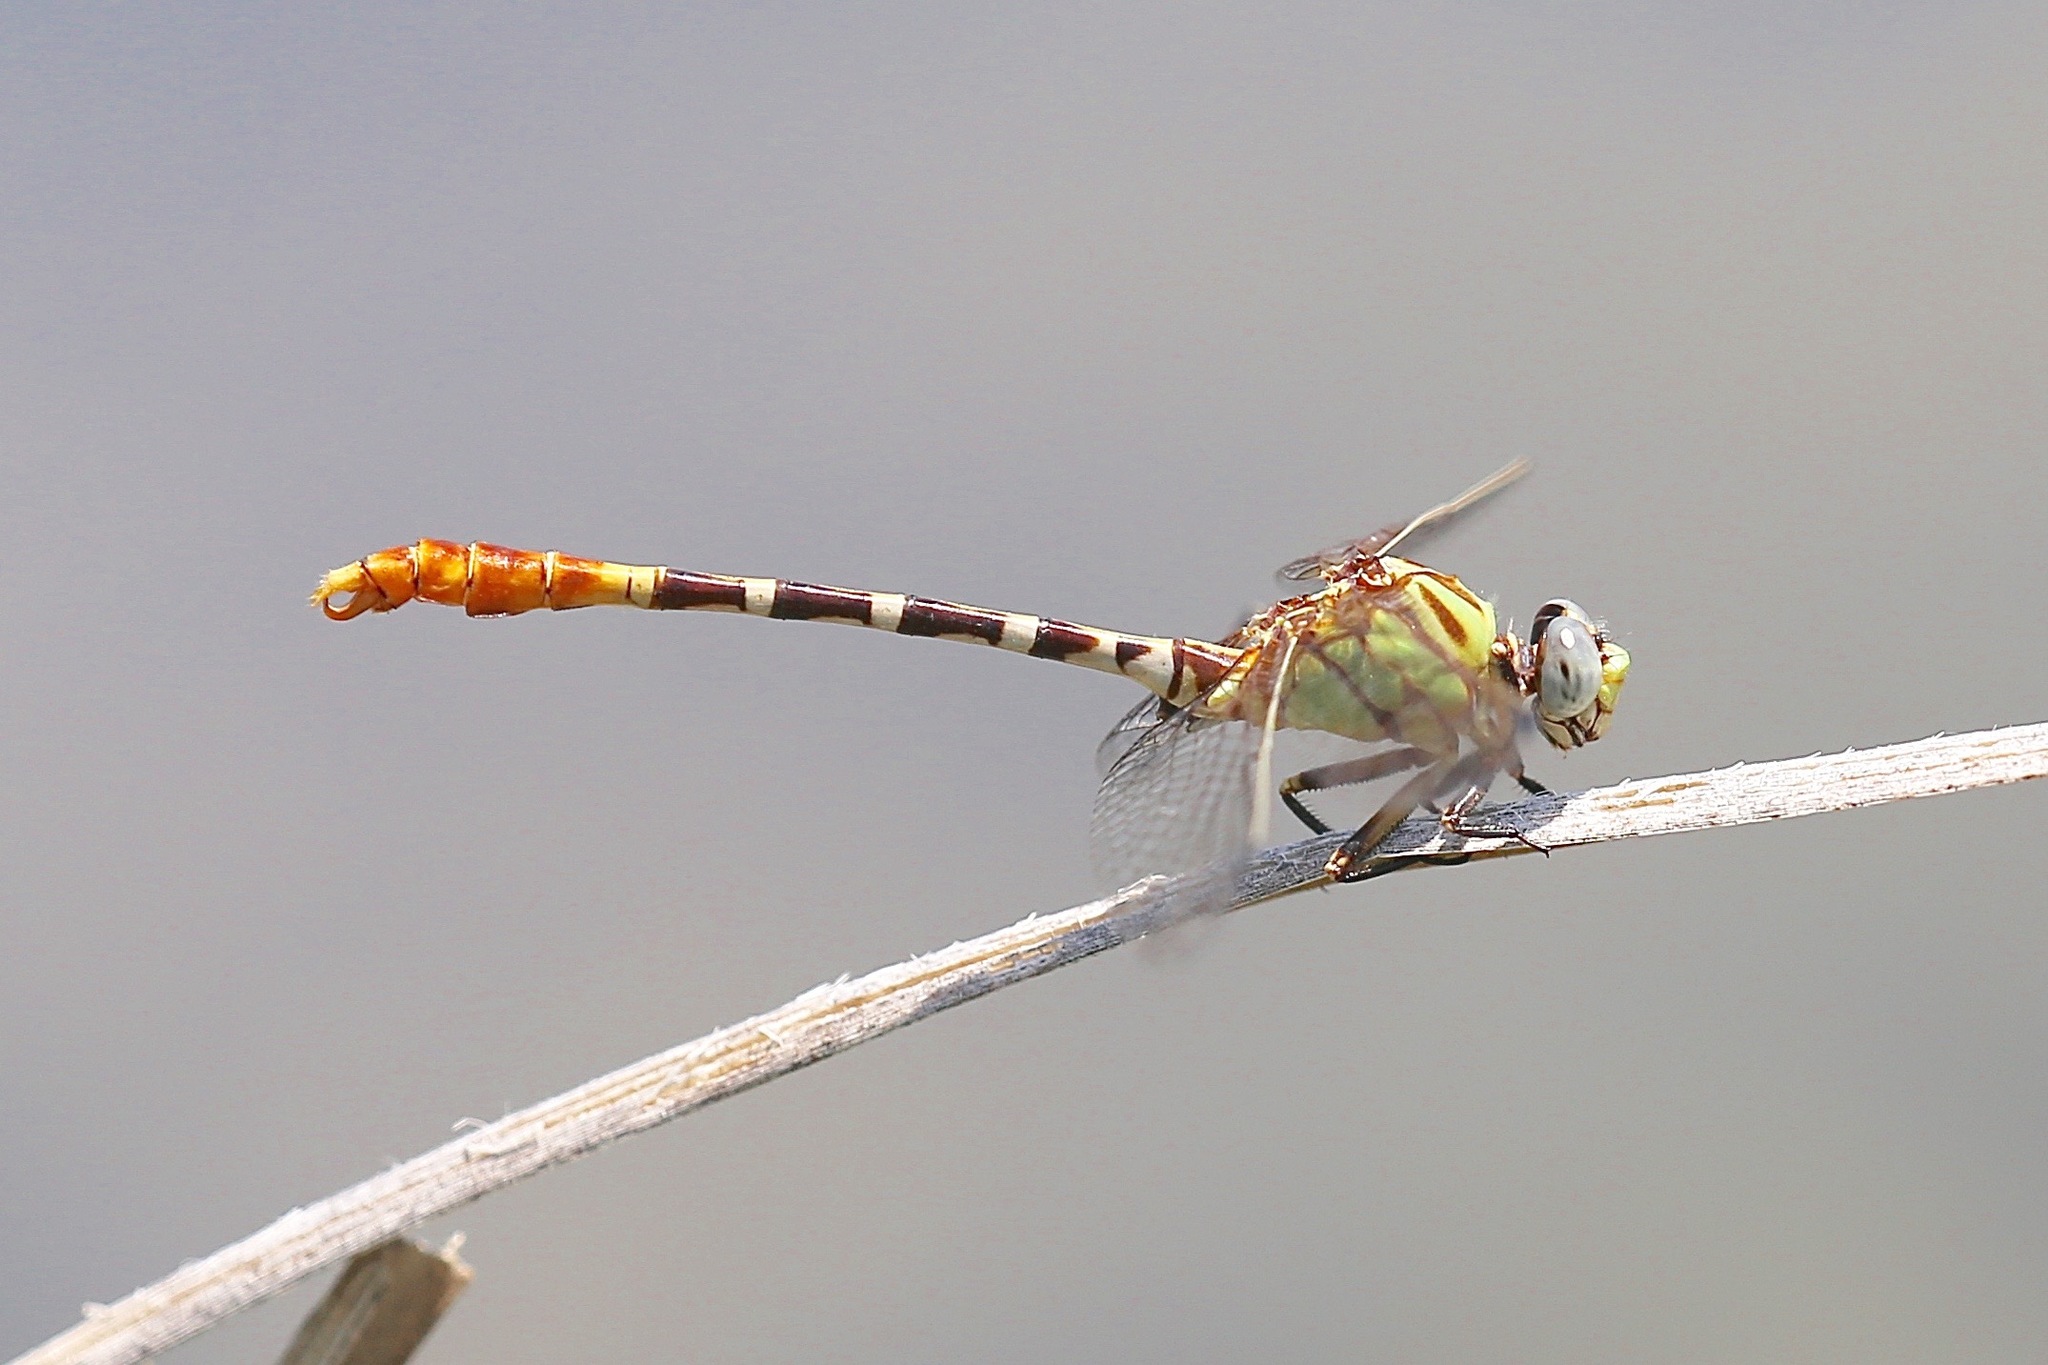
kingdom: Animalia
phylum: Arthropoda
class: Insecta
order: Odonata
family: Gomphidae
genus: Erpetogomphus
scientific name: Erpetogomphus designatus
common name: Eastern ringtail
